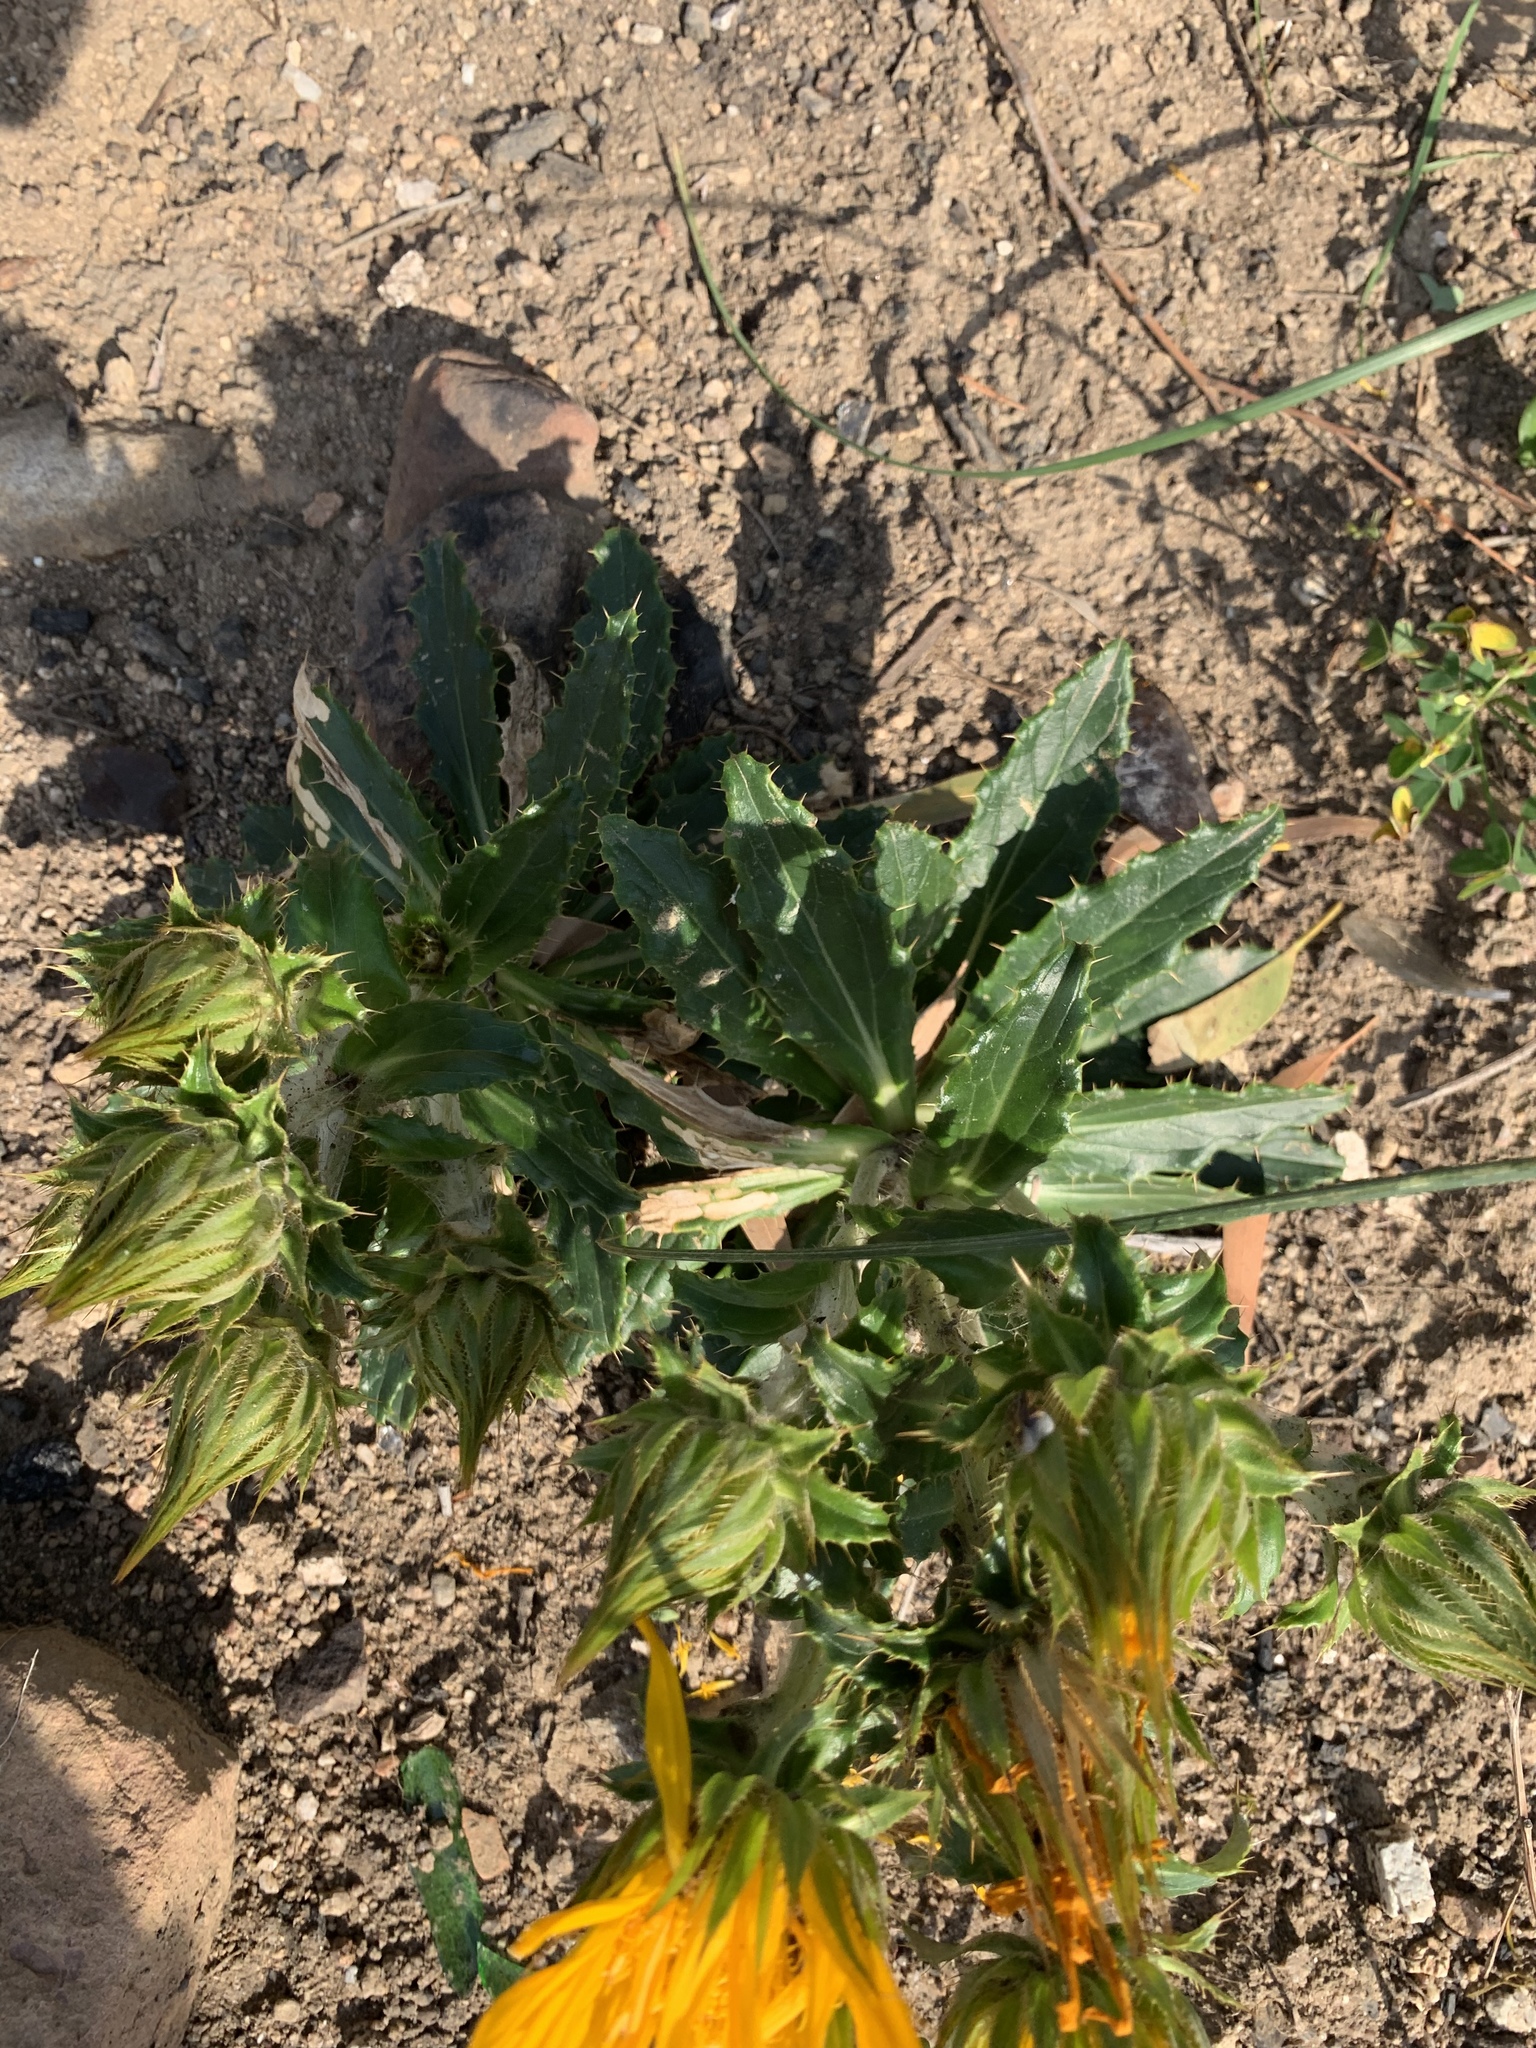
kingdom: Plantae
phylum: Tracheophyta
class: Magnoliopsida
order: Asterales
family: Asteraceae
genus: Berkheya
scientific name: Berkheya armata
